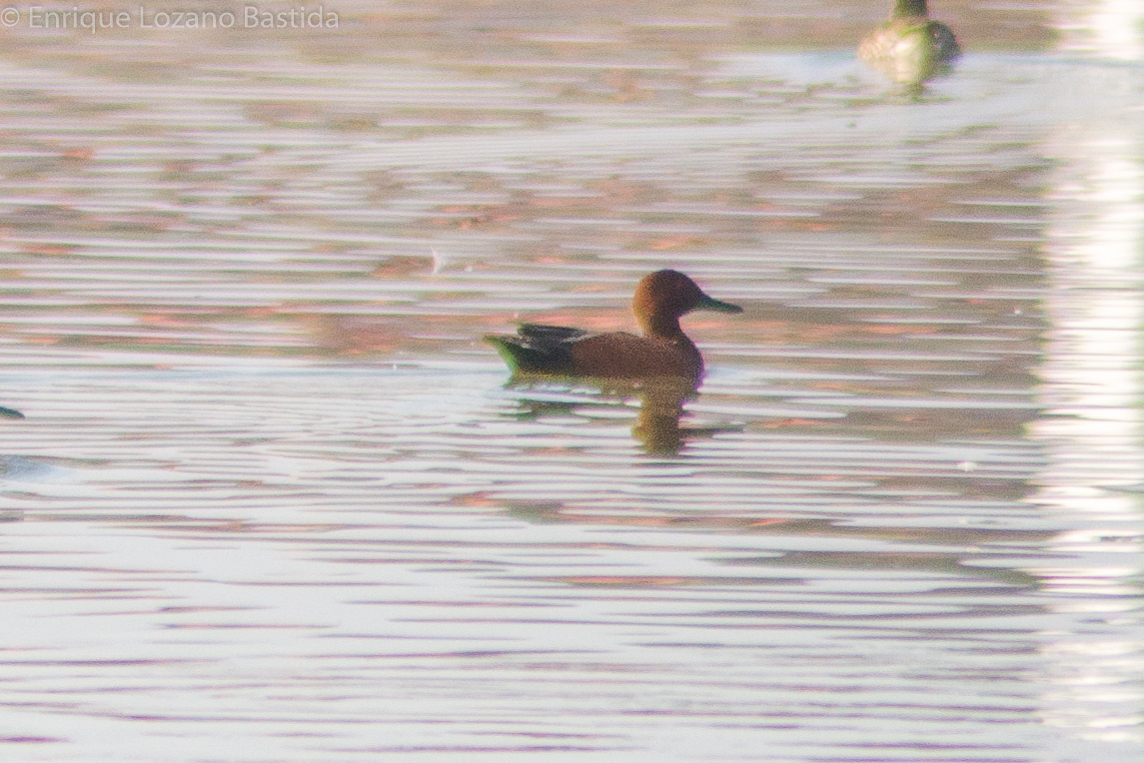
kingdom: Animalia
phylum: Chordata
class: Aves
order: Anseriformes
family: Anatidae
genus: Spatula
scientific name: Spatula cyanoptera
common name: Cinnamon teal
